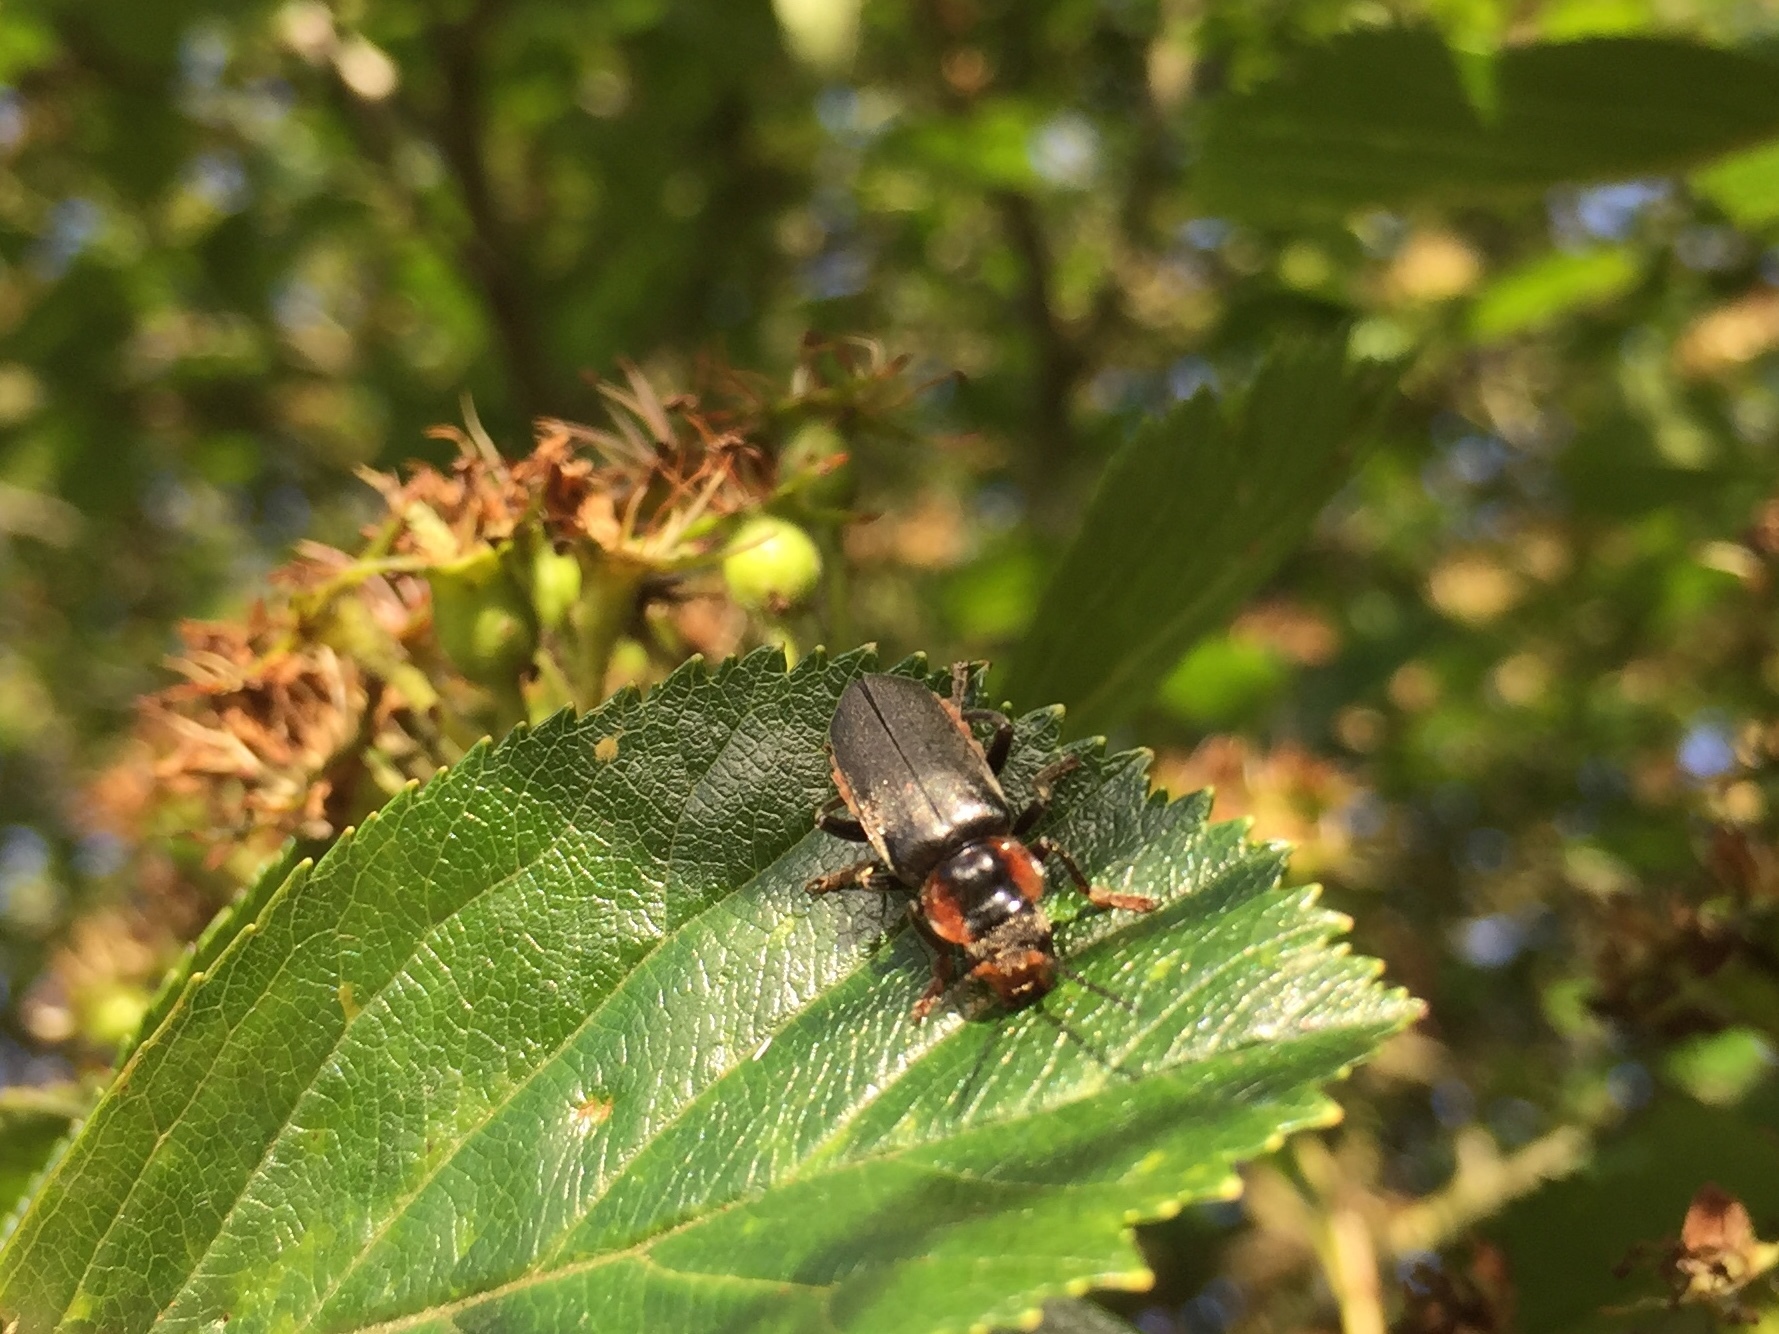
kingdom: Animalia
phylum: Arthropoda
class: Insecta
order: Coleoptera
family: Cantharidae
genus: Cantharis
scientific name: Cantharis fusca
